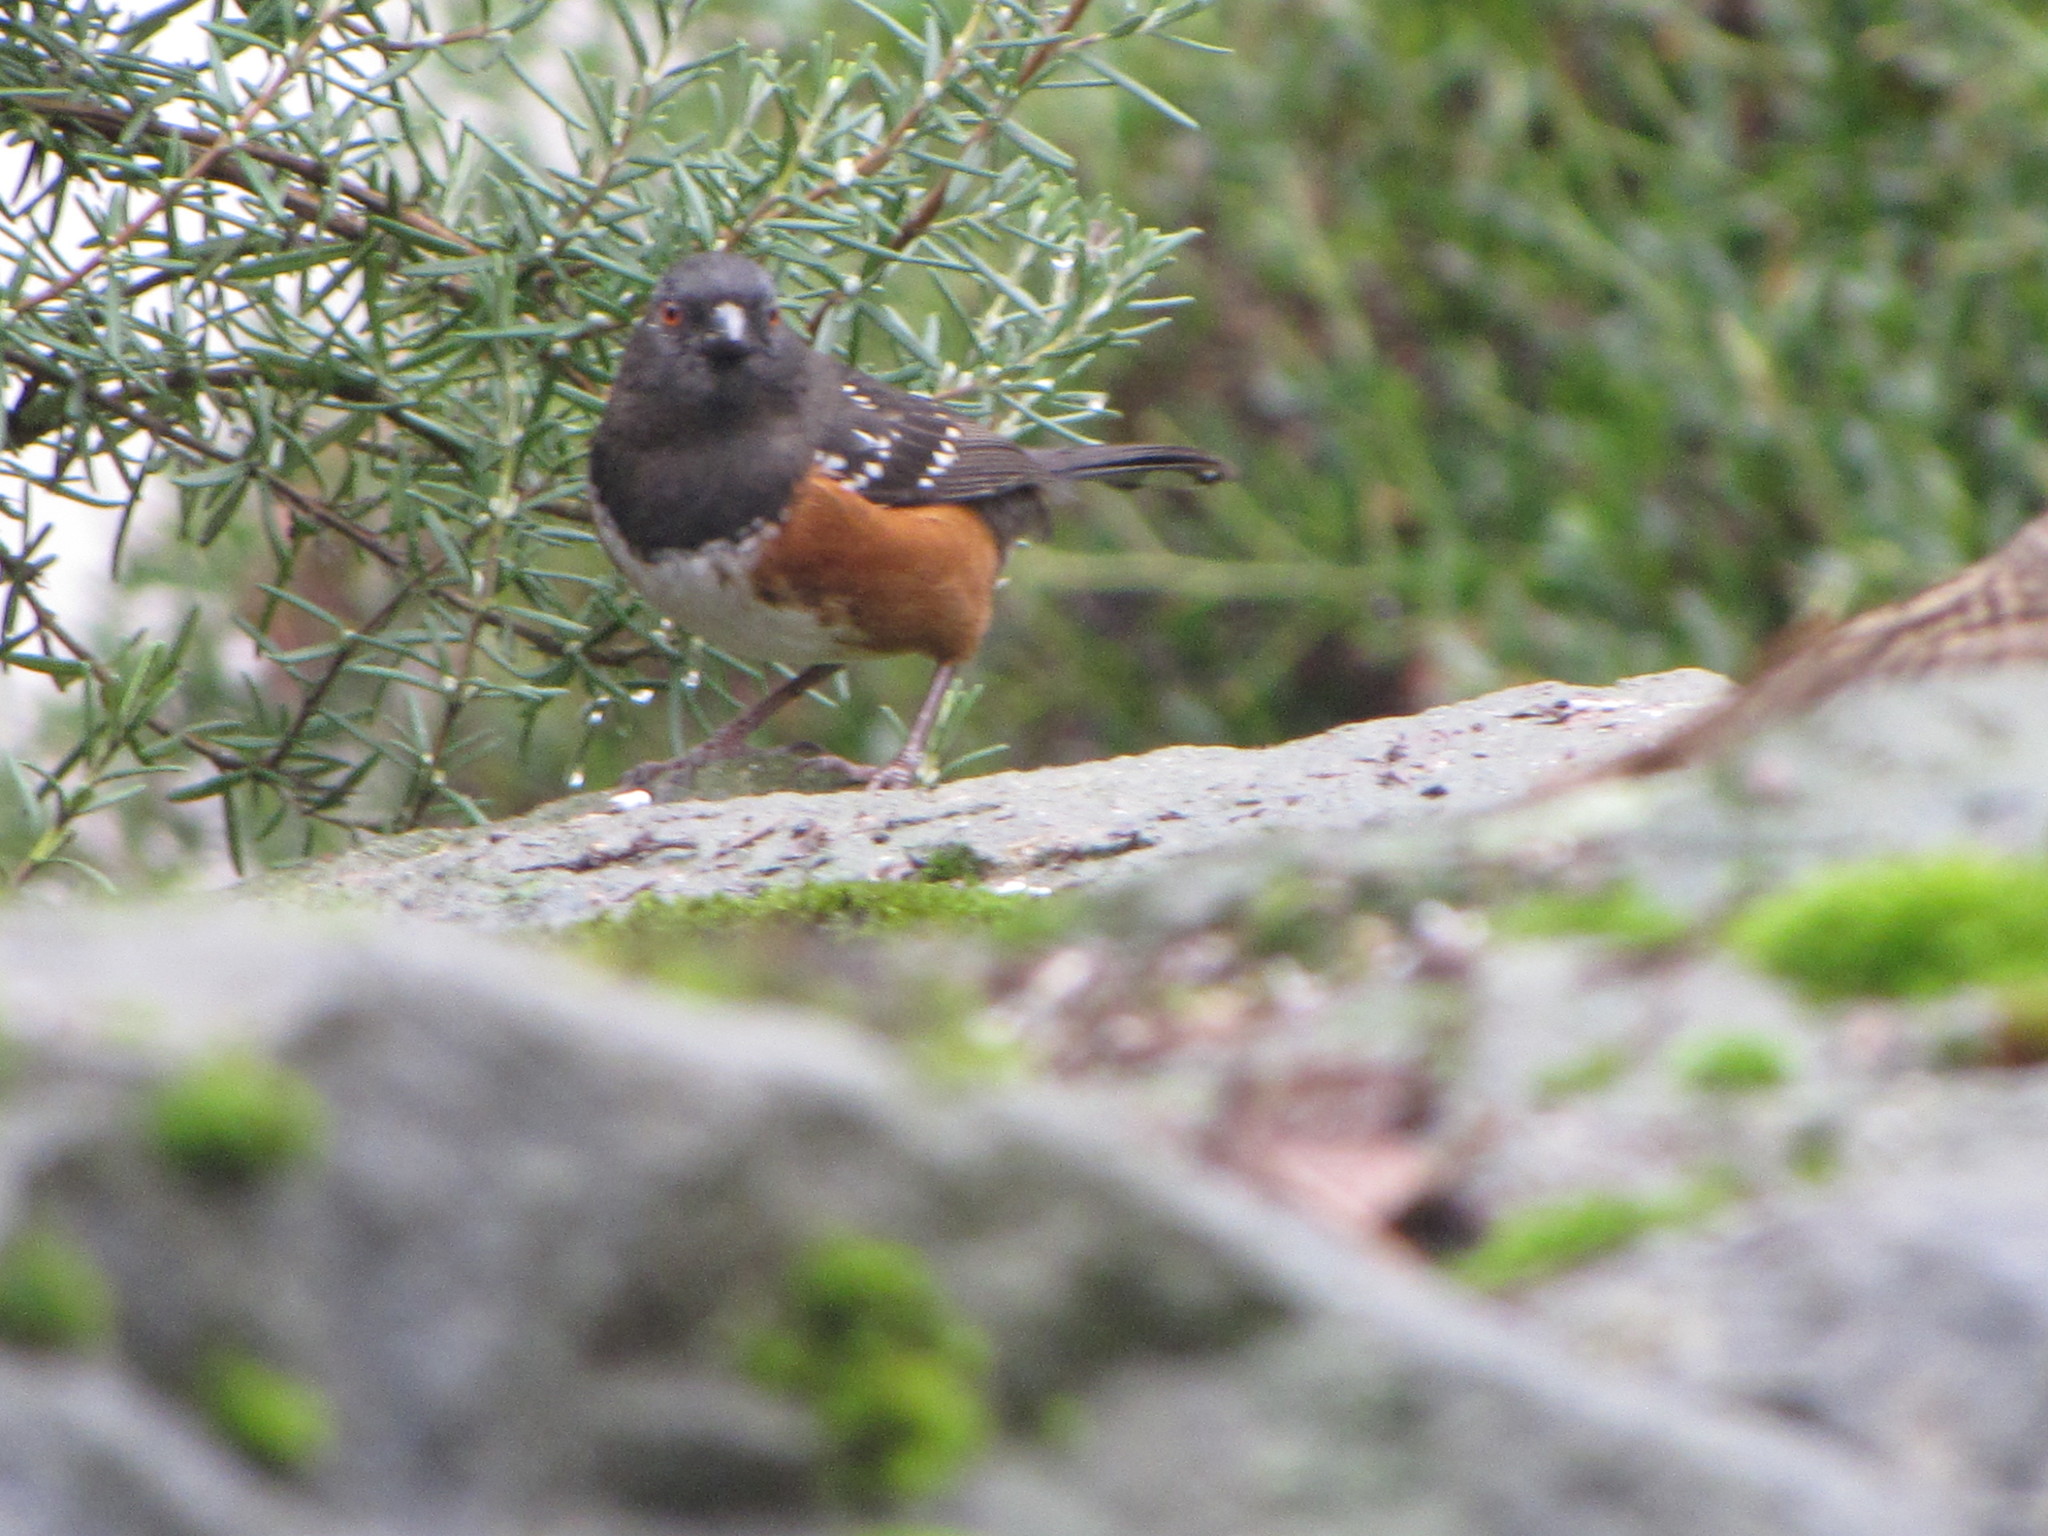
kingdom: Animalia
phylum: Chordata
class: Aves
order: Passeriformes
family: Passerellidae
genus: Pipilo
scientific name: Pipilo maculatus
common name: Spotted towhee
